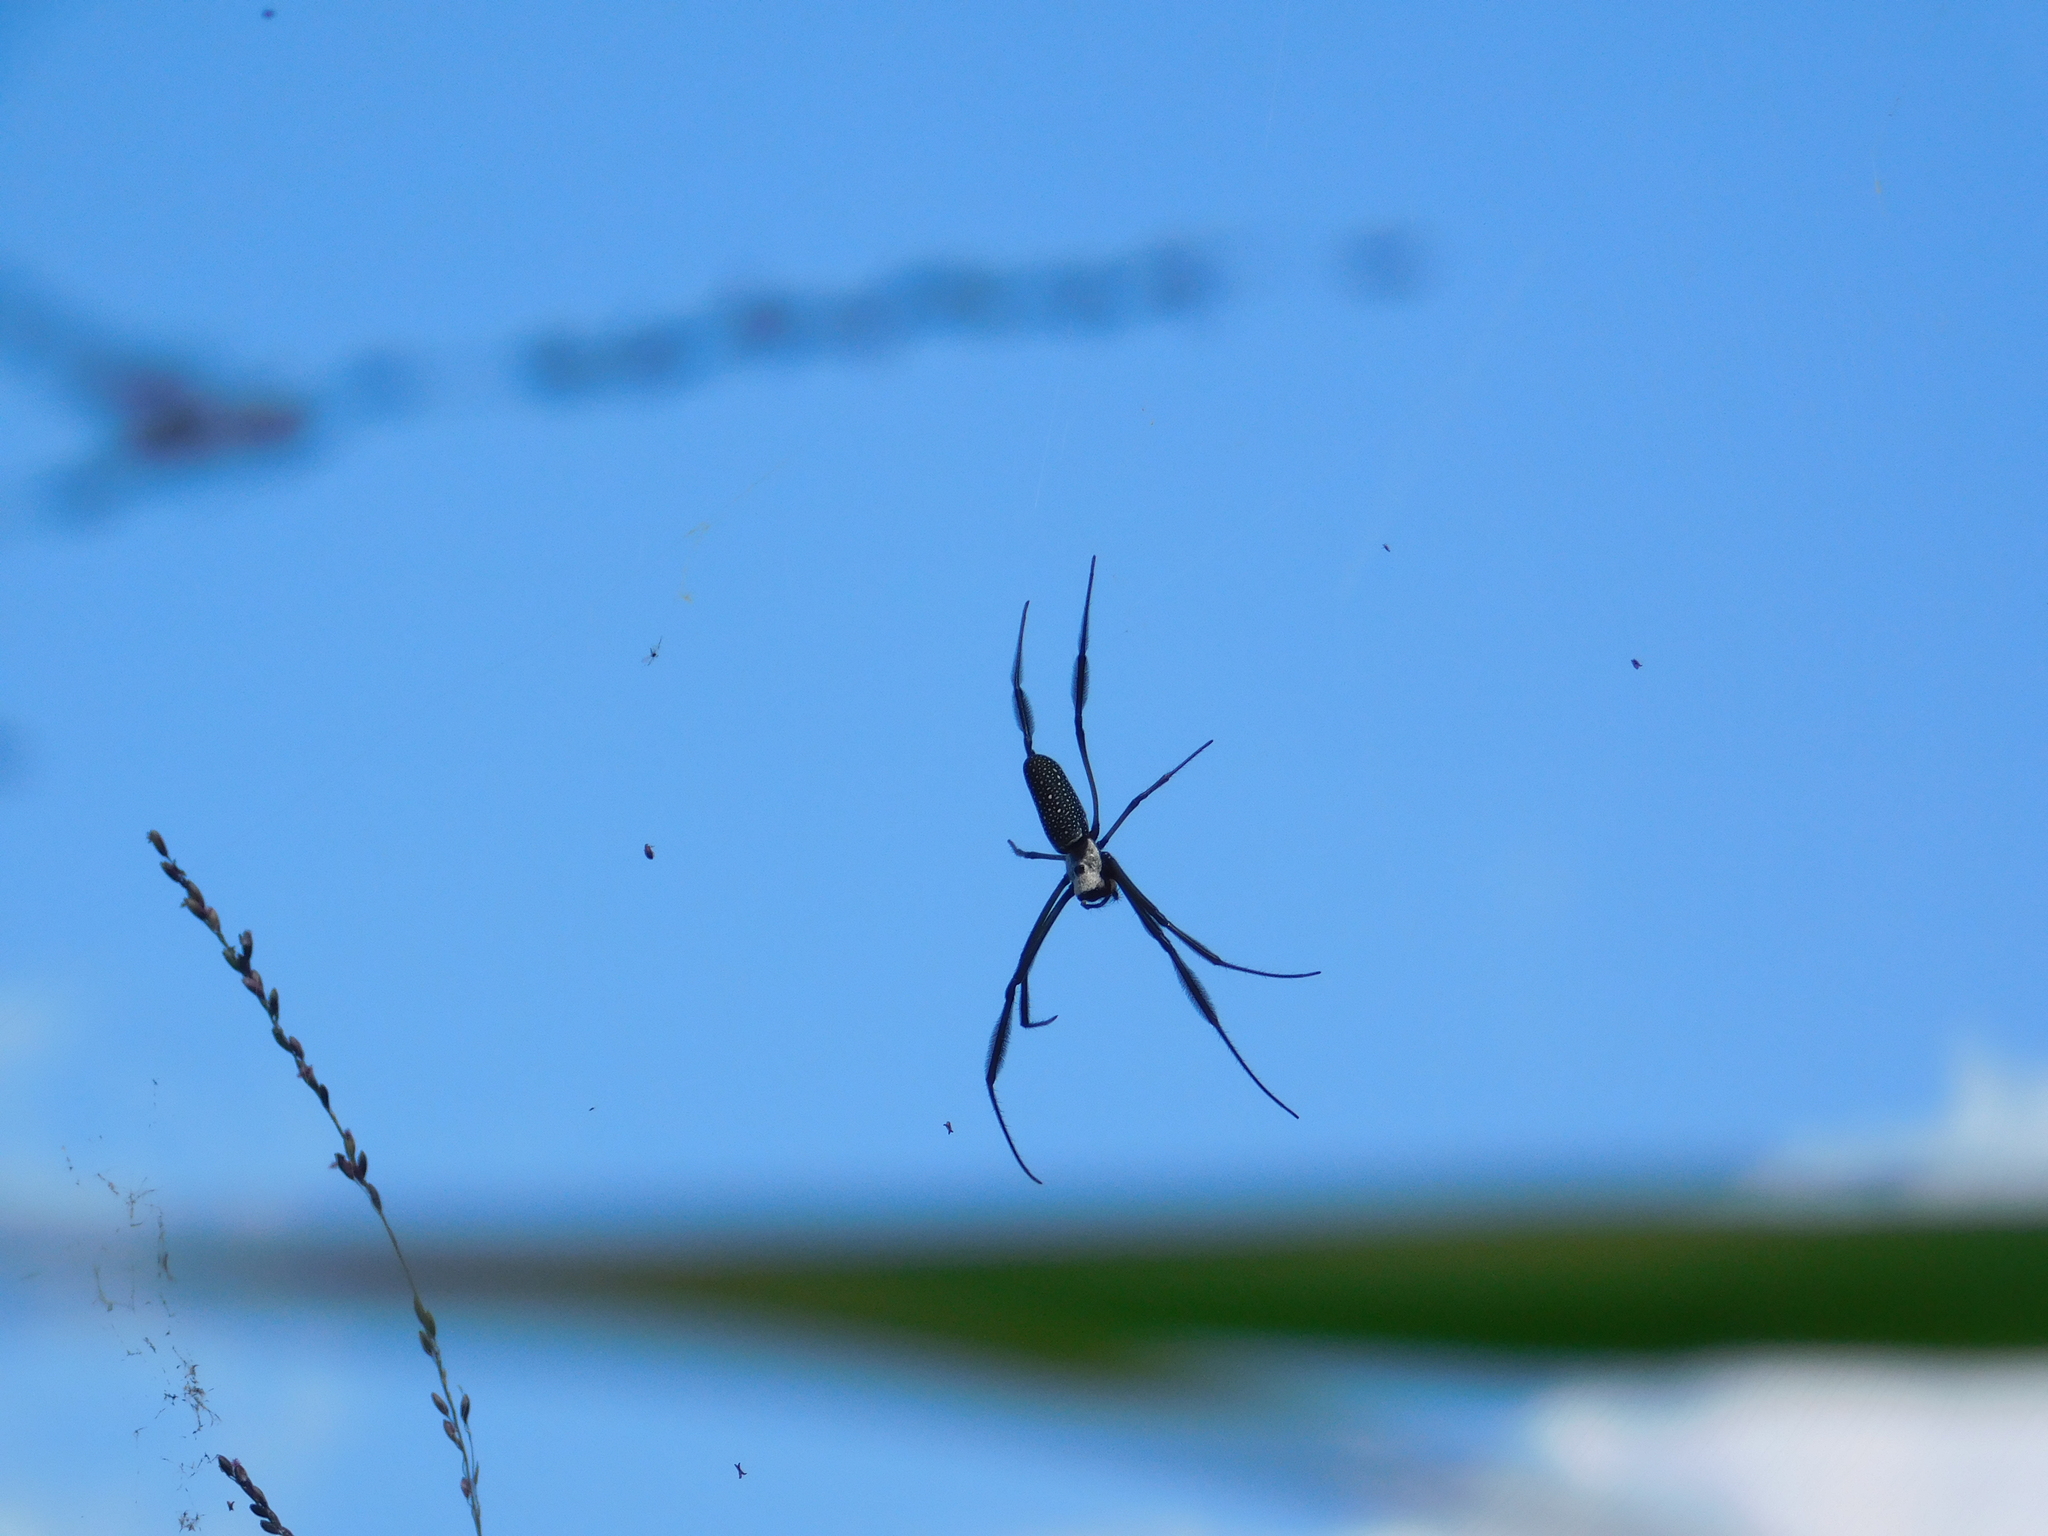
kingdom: Animalia
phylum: Arthropoda
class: Arachnida
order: Araneae
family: Araneidae
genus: Trichonephila
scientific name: Trichonephila clavipes
